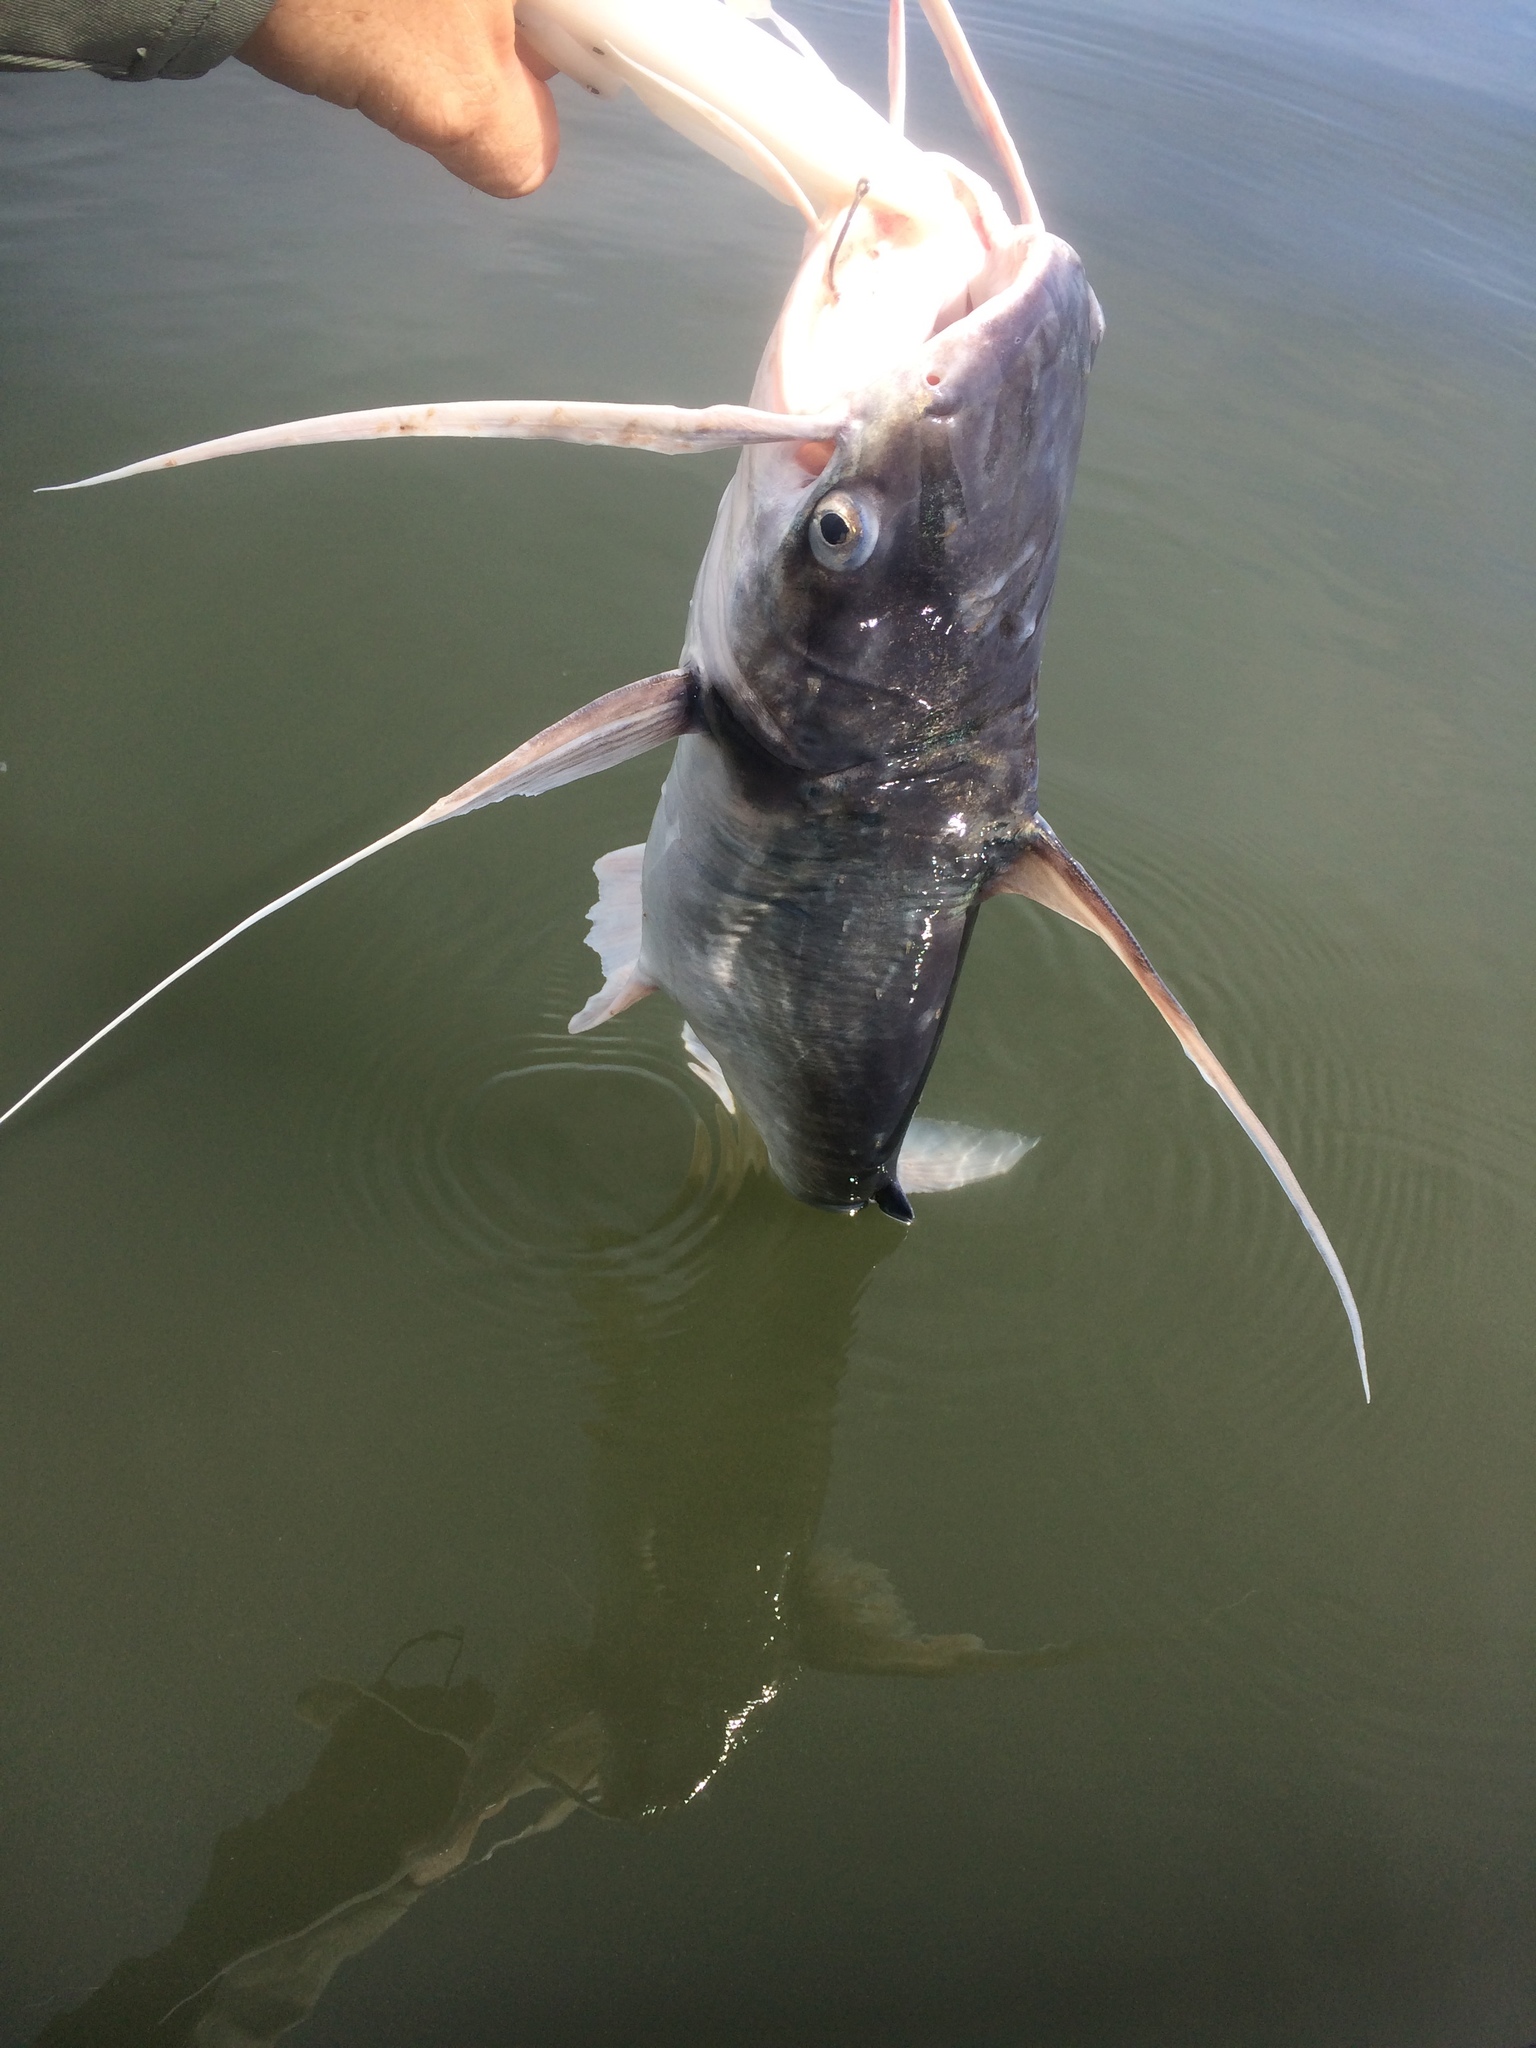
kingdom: Animalia
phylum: Chordata
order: Siluriformes
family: Ariidae
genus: Bagre
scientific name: Bagre marinus
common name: Gafftopsail sea catfish
